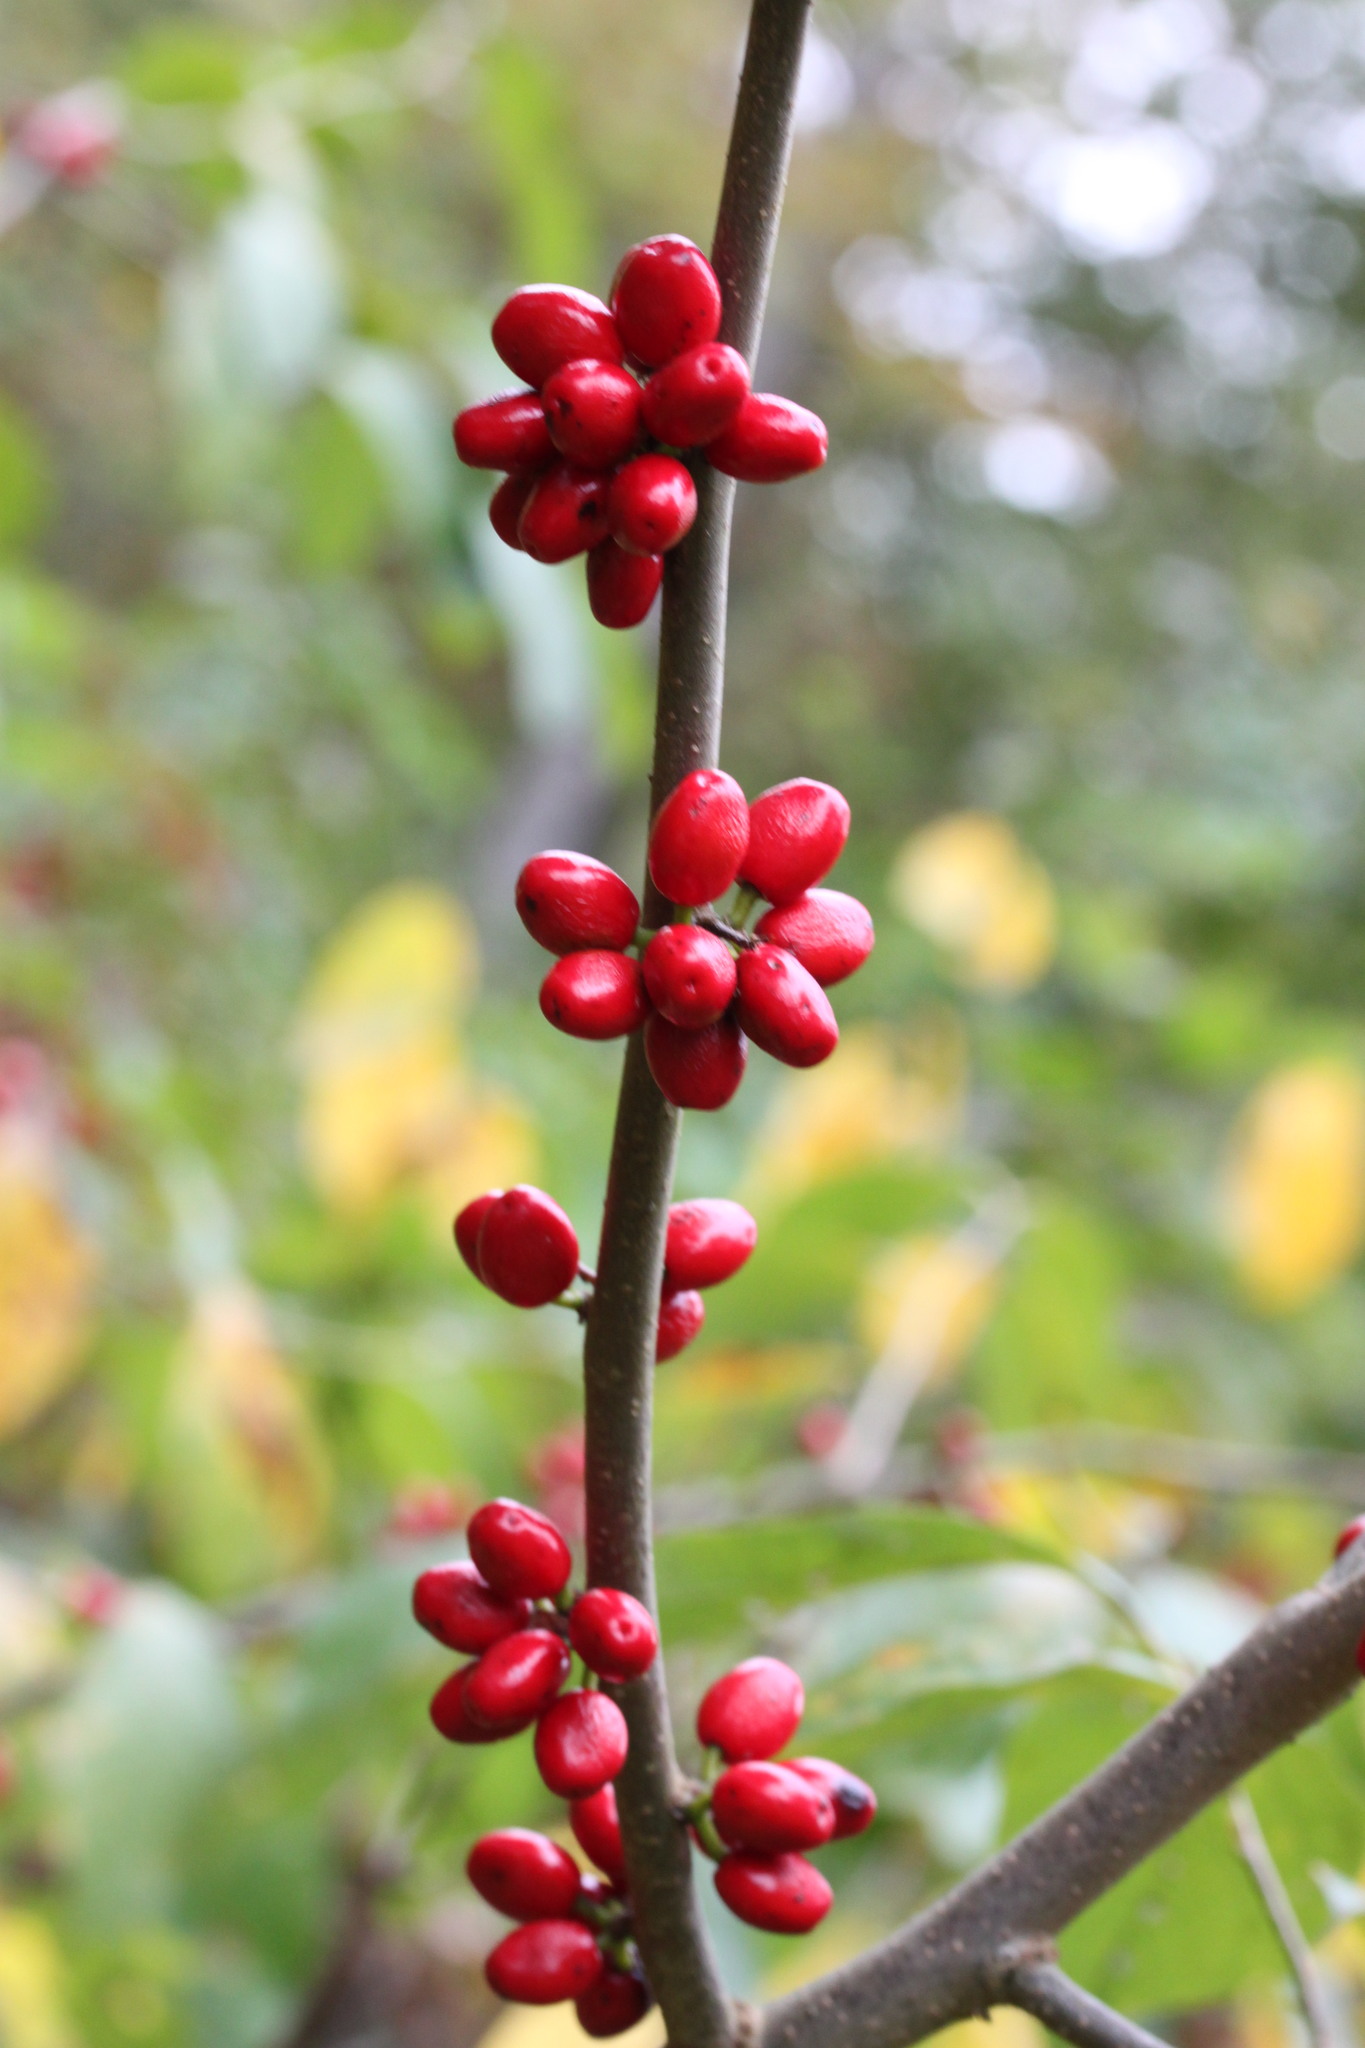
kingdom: Plantae
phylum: Tracheophyta
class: Magnoliopsida
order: Laurales
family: Lauraceae
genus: Lindera
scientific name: Lindera benzoin
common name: Spicebush
